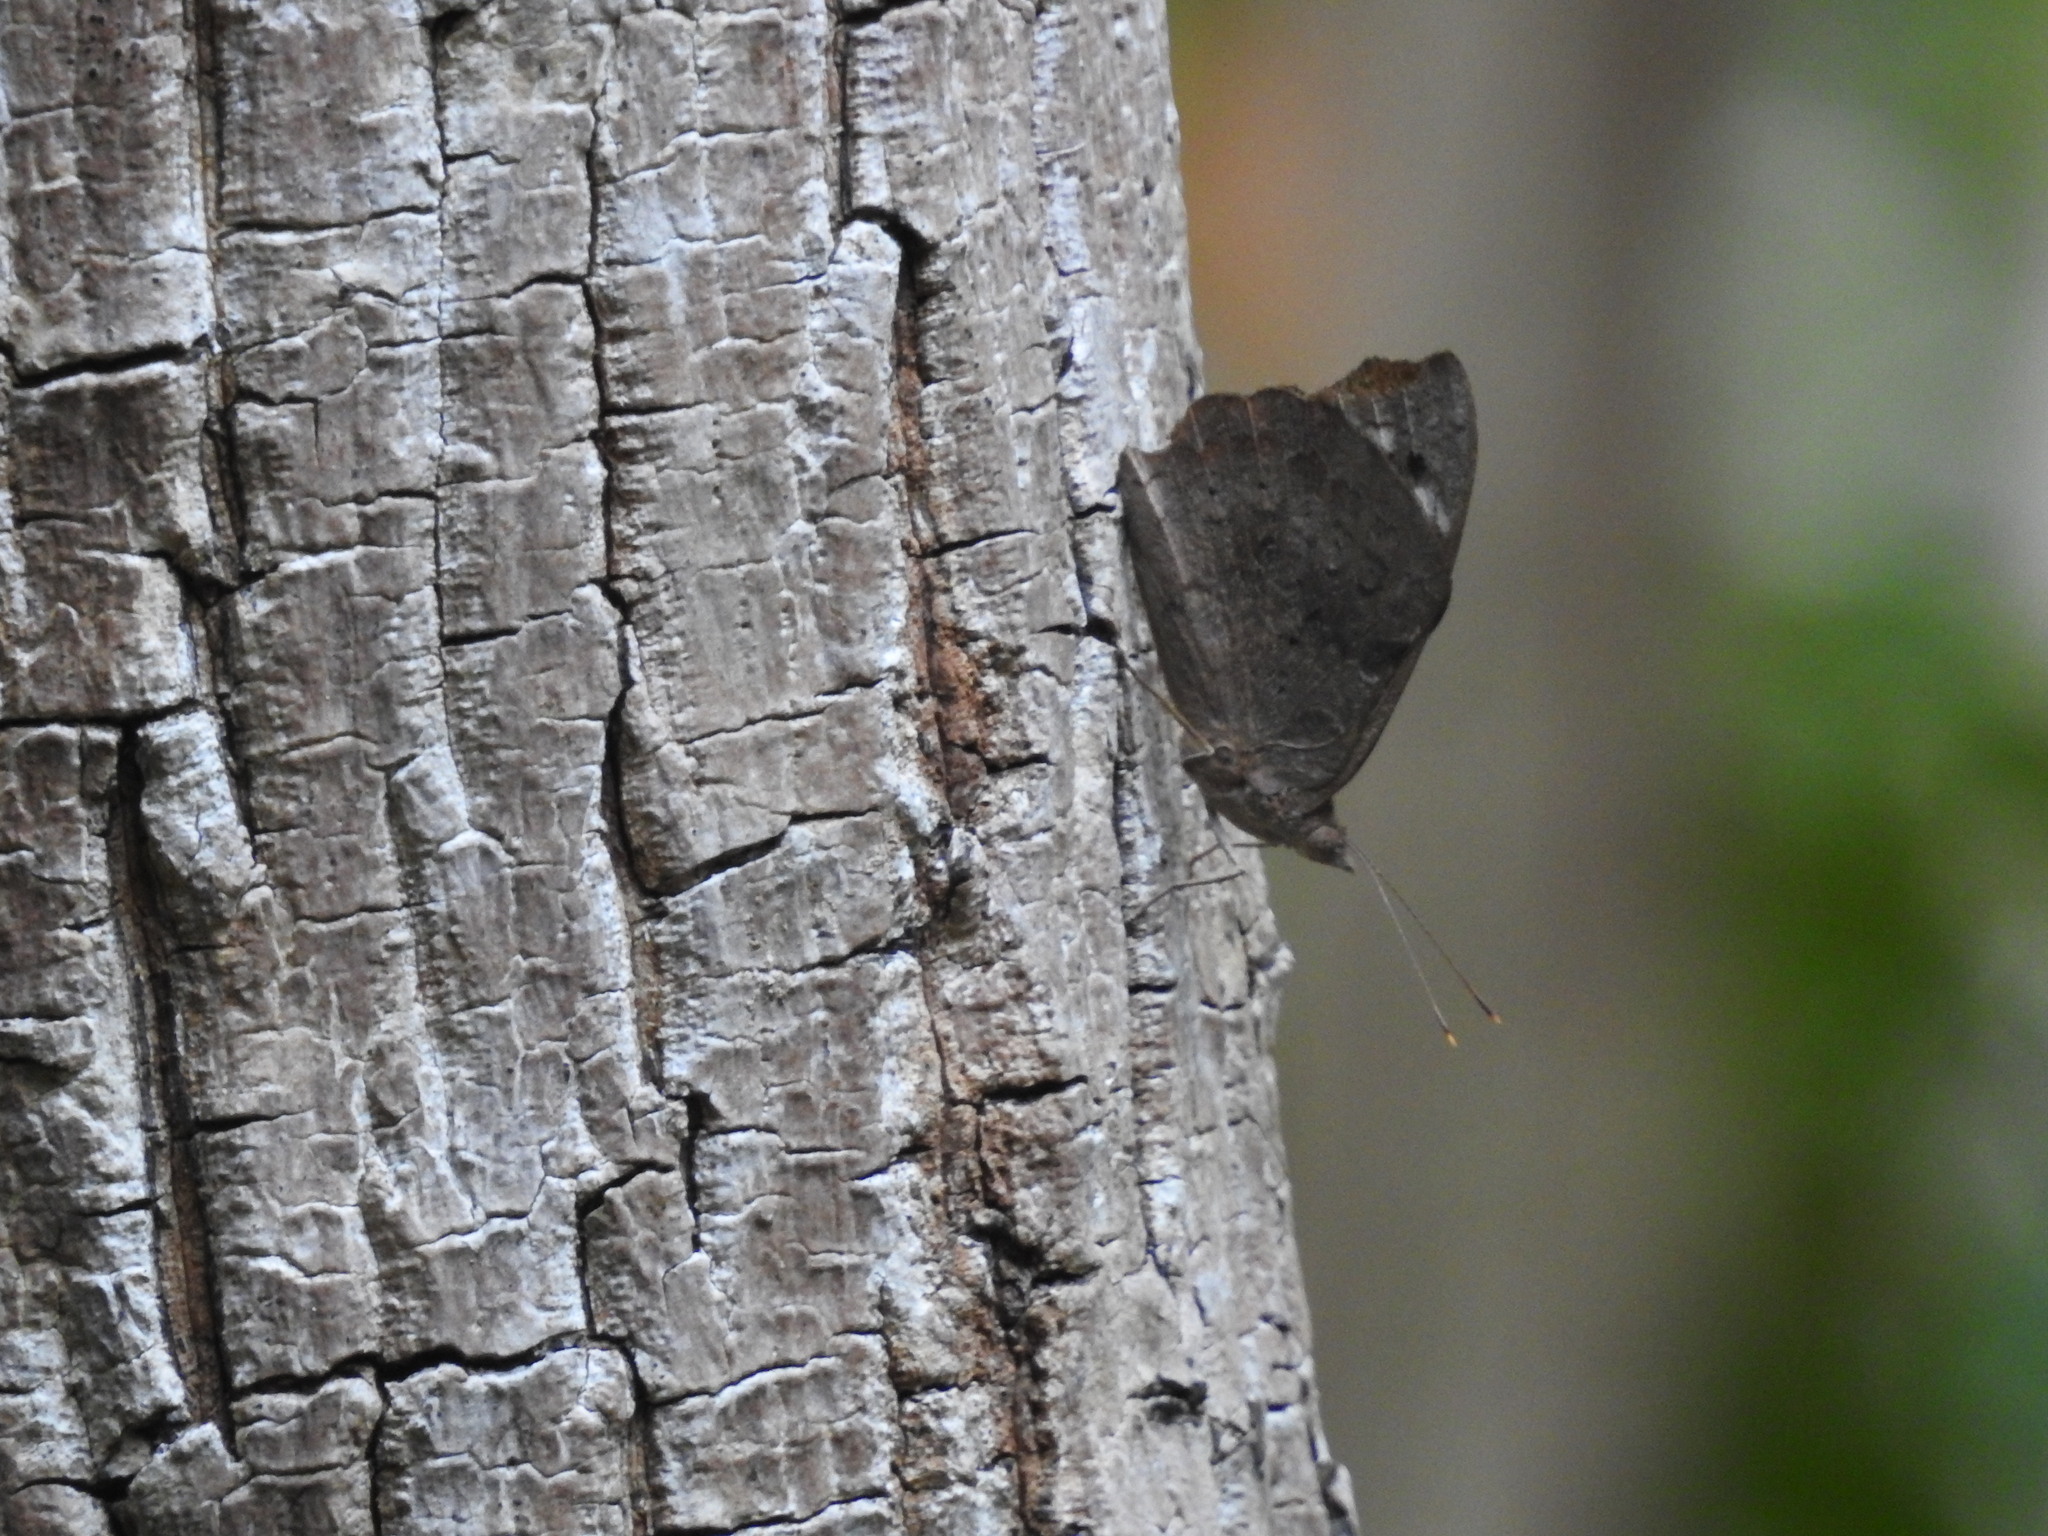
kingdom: Animalia
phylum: Arthropoda
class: Insecta
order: Lepidoptera
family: Nymphalidae
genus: Eunica
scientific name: Eunica tatila
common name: Florida purplewing
